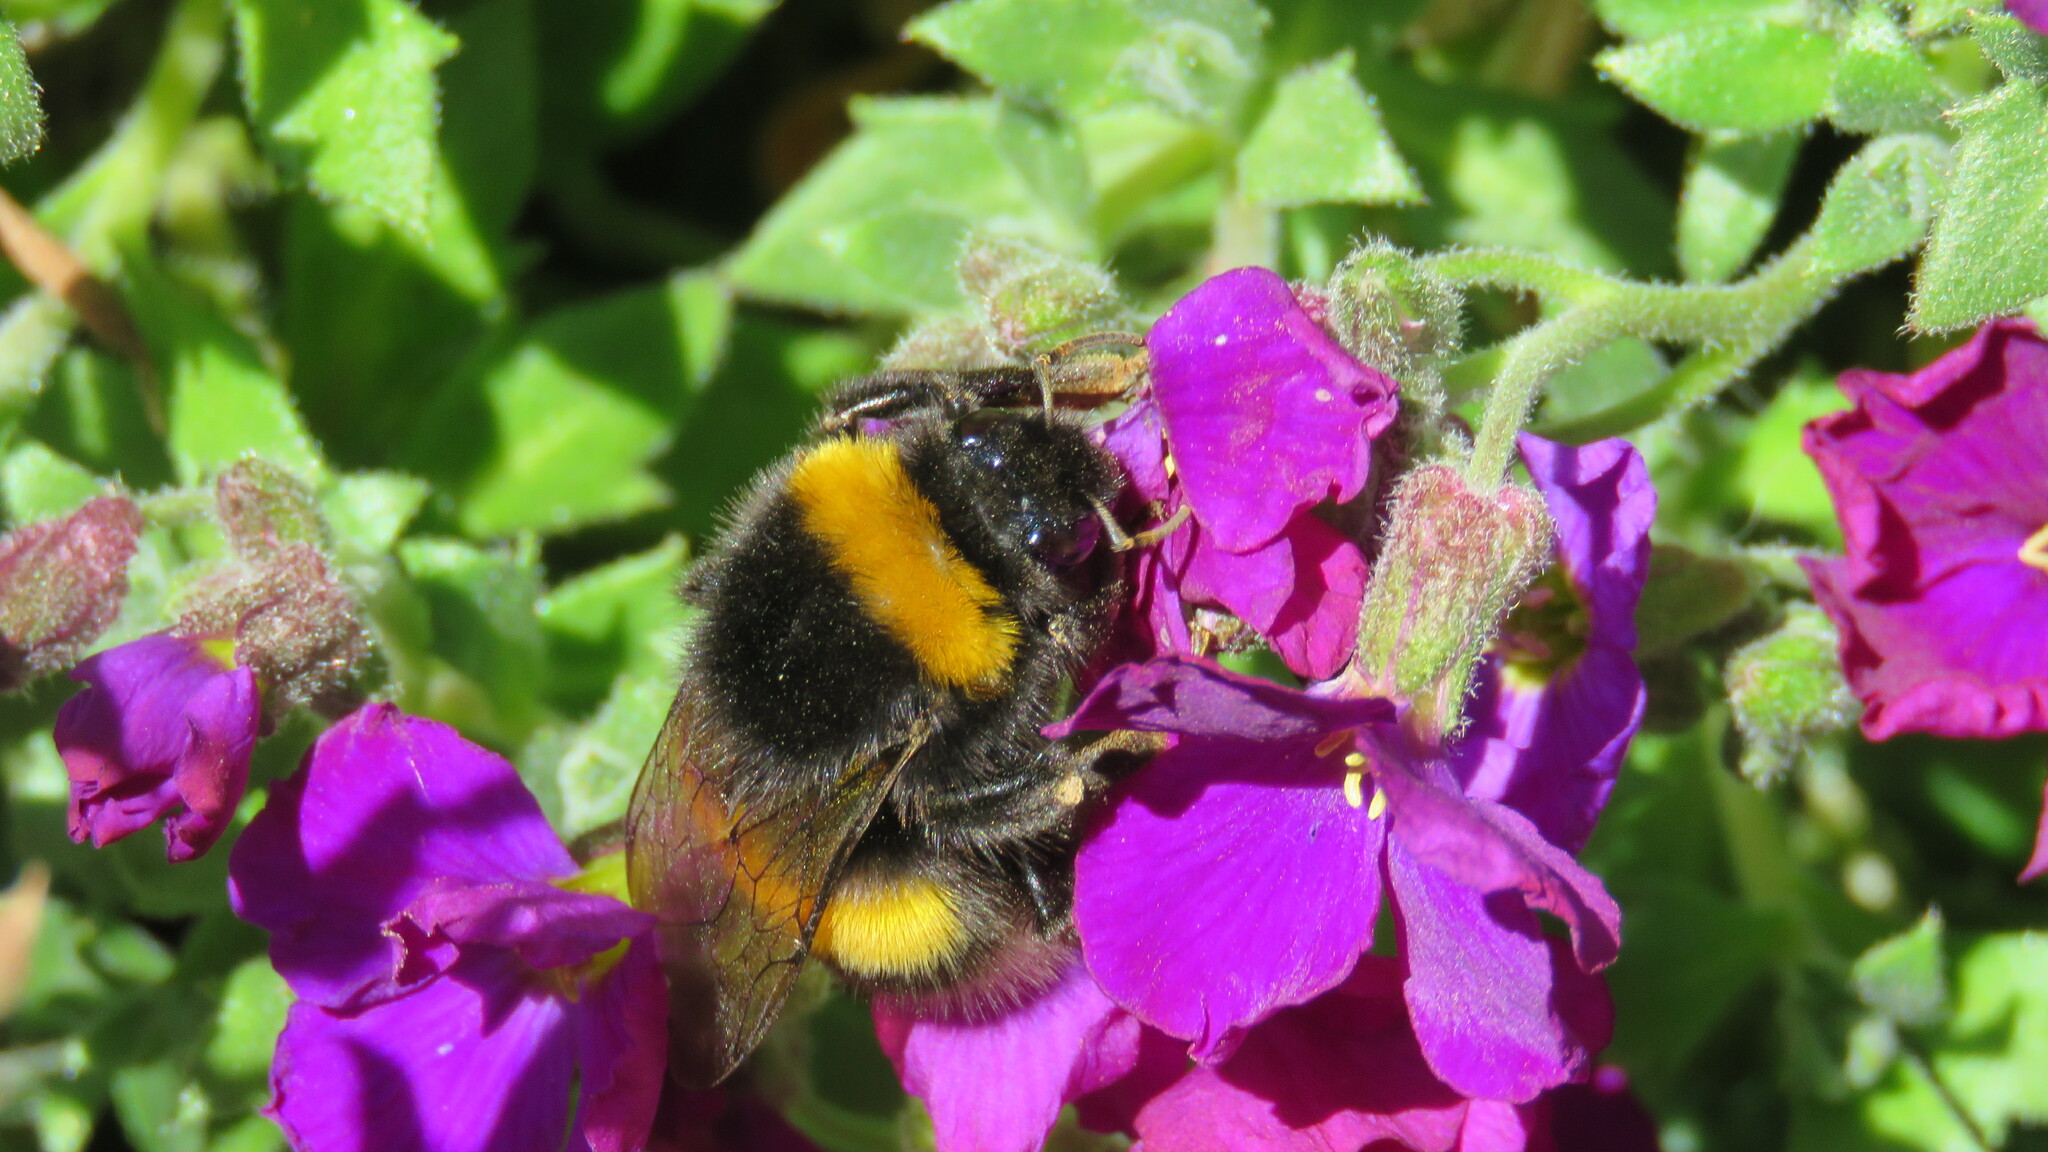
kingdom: Animalia
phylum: Arthropoda
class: Insecta
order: Hymenoptera
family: Apidae
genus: Bombus
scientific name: Bombus terrestris
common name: Buff-tailed bumblebee
